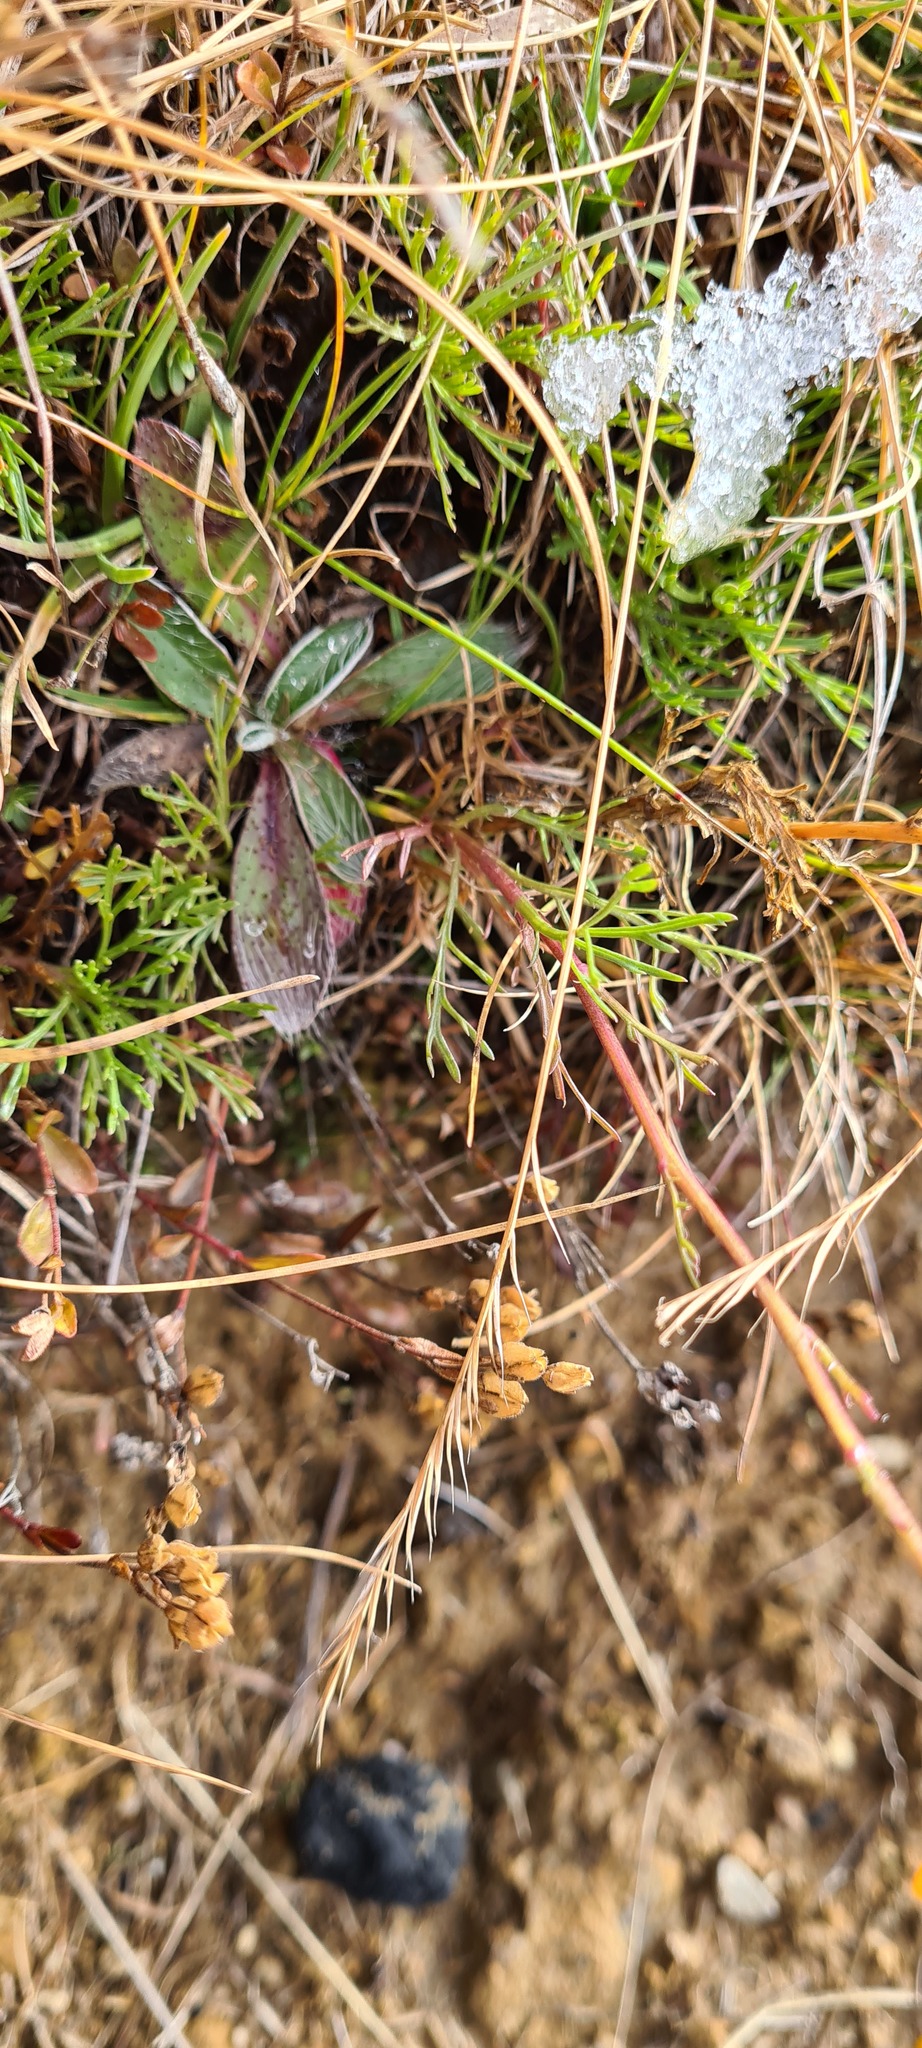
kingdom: Plantae
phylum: Tracheophyta
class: Magnoliopsida
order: Asterales
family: Asteraceae
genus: Jacobaea
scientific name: Jacobaea abrotanifolia
